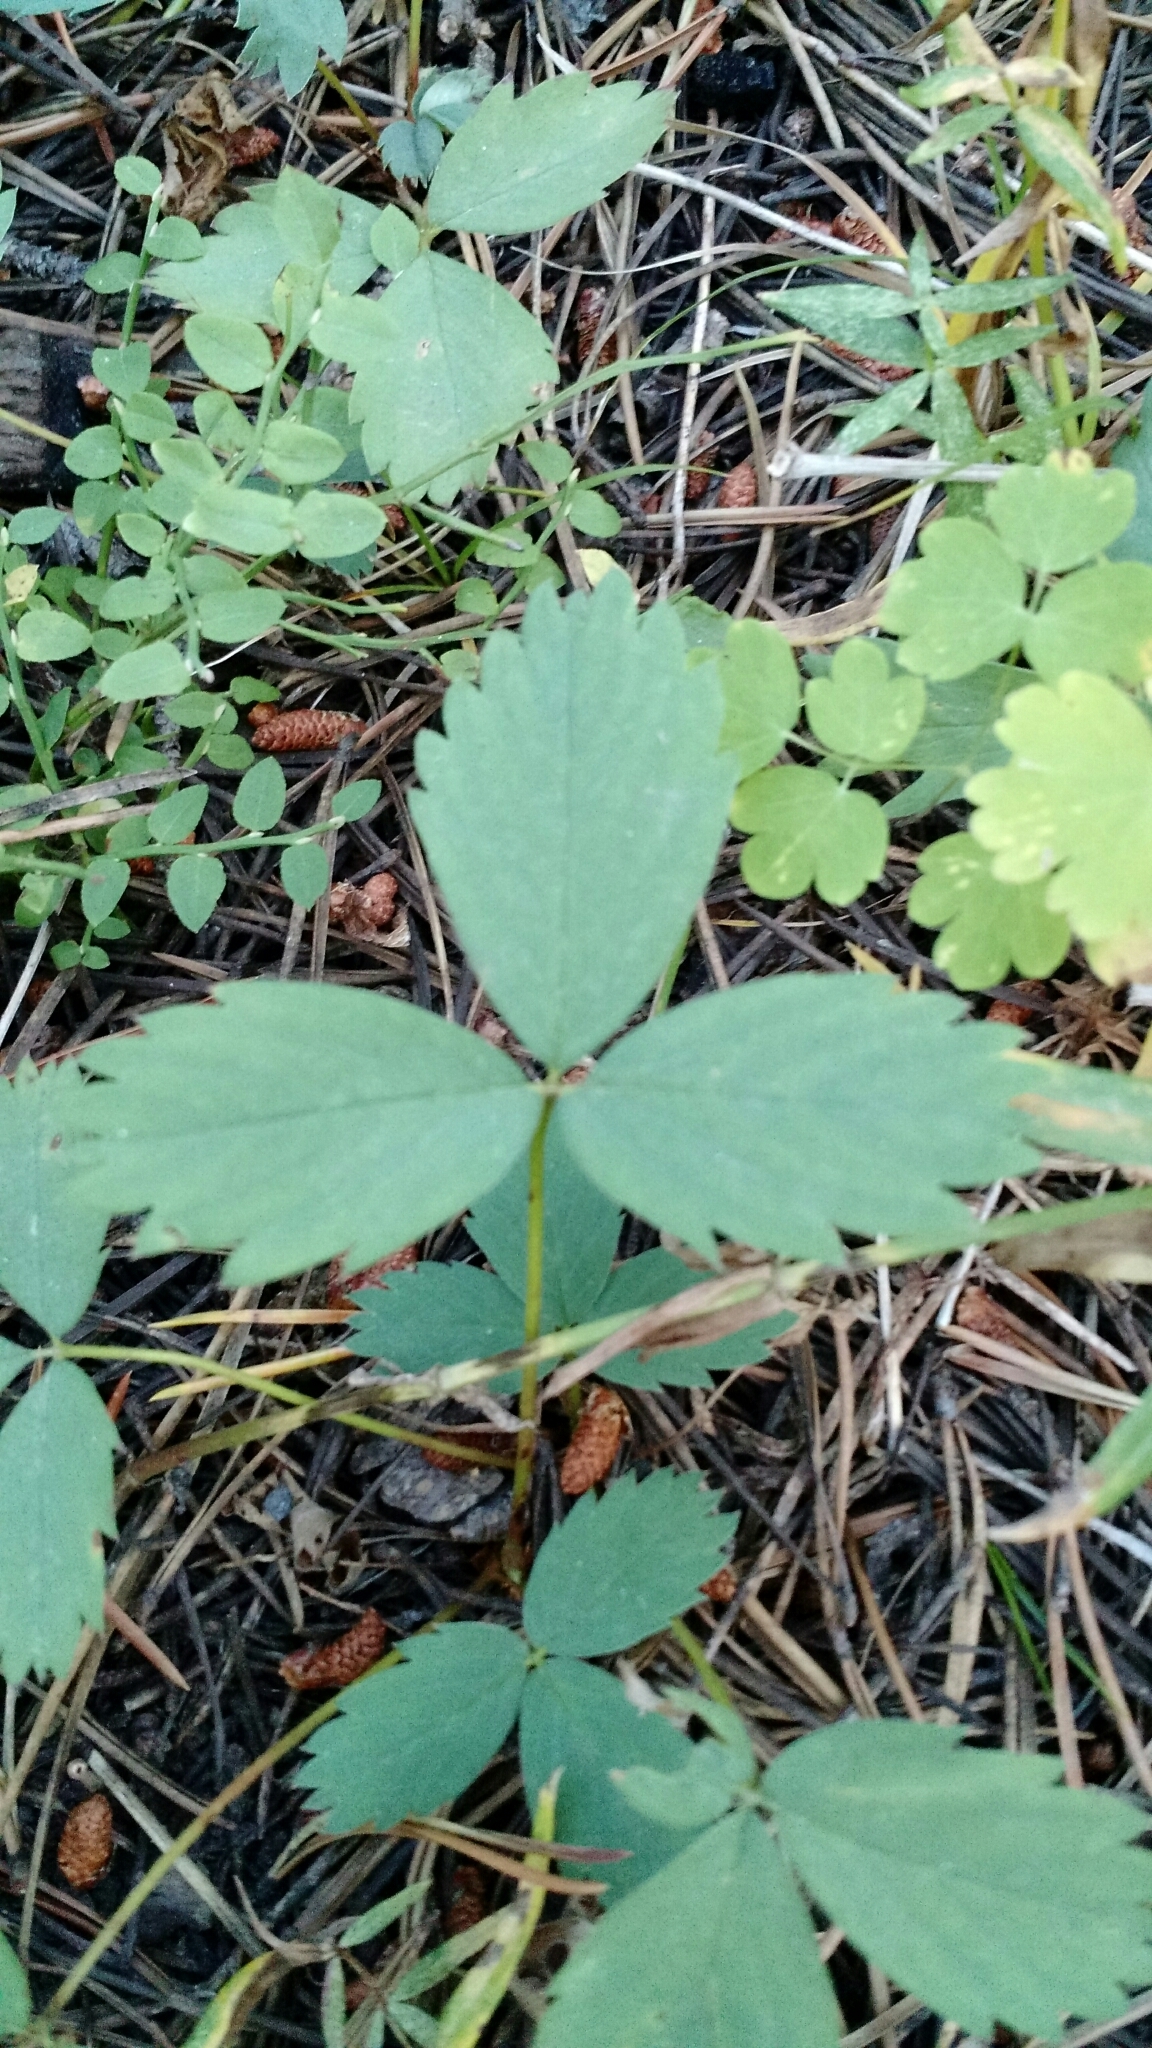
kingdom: Plantae
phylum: Tracheophyta
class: Magnoliopsida
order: Rosales
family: Rosaceae
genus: Fragaria
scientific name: Fragaria virginiana
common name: Thickleaved wild strawberry
